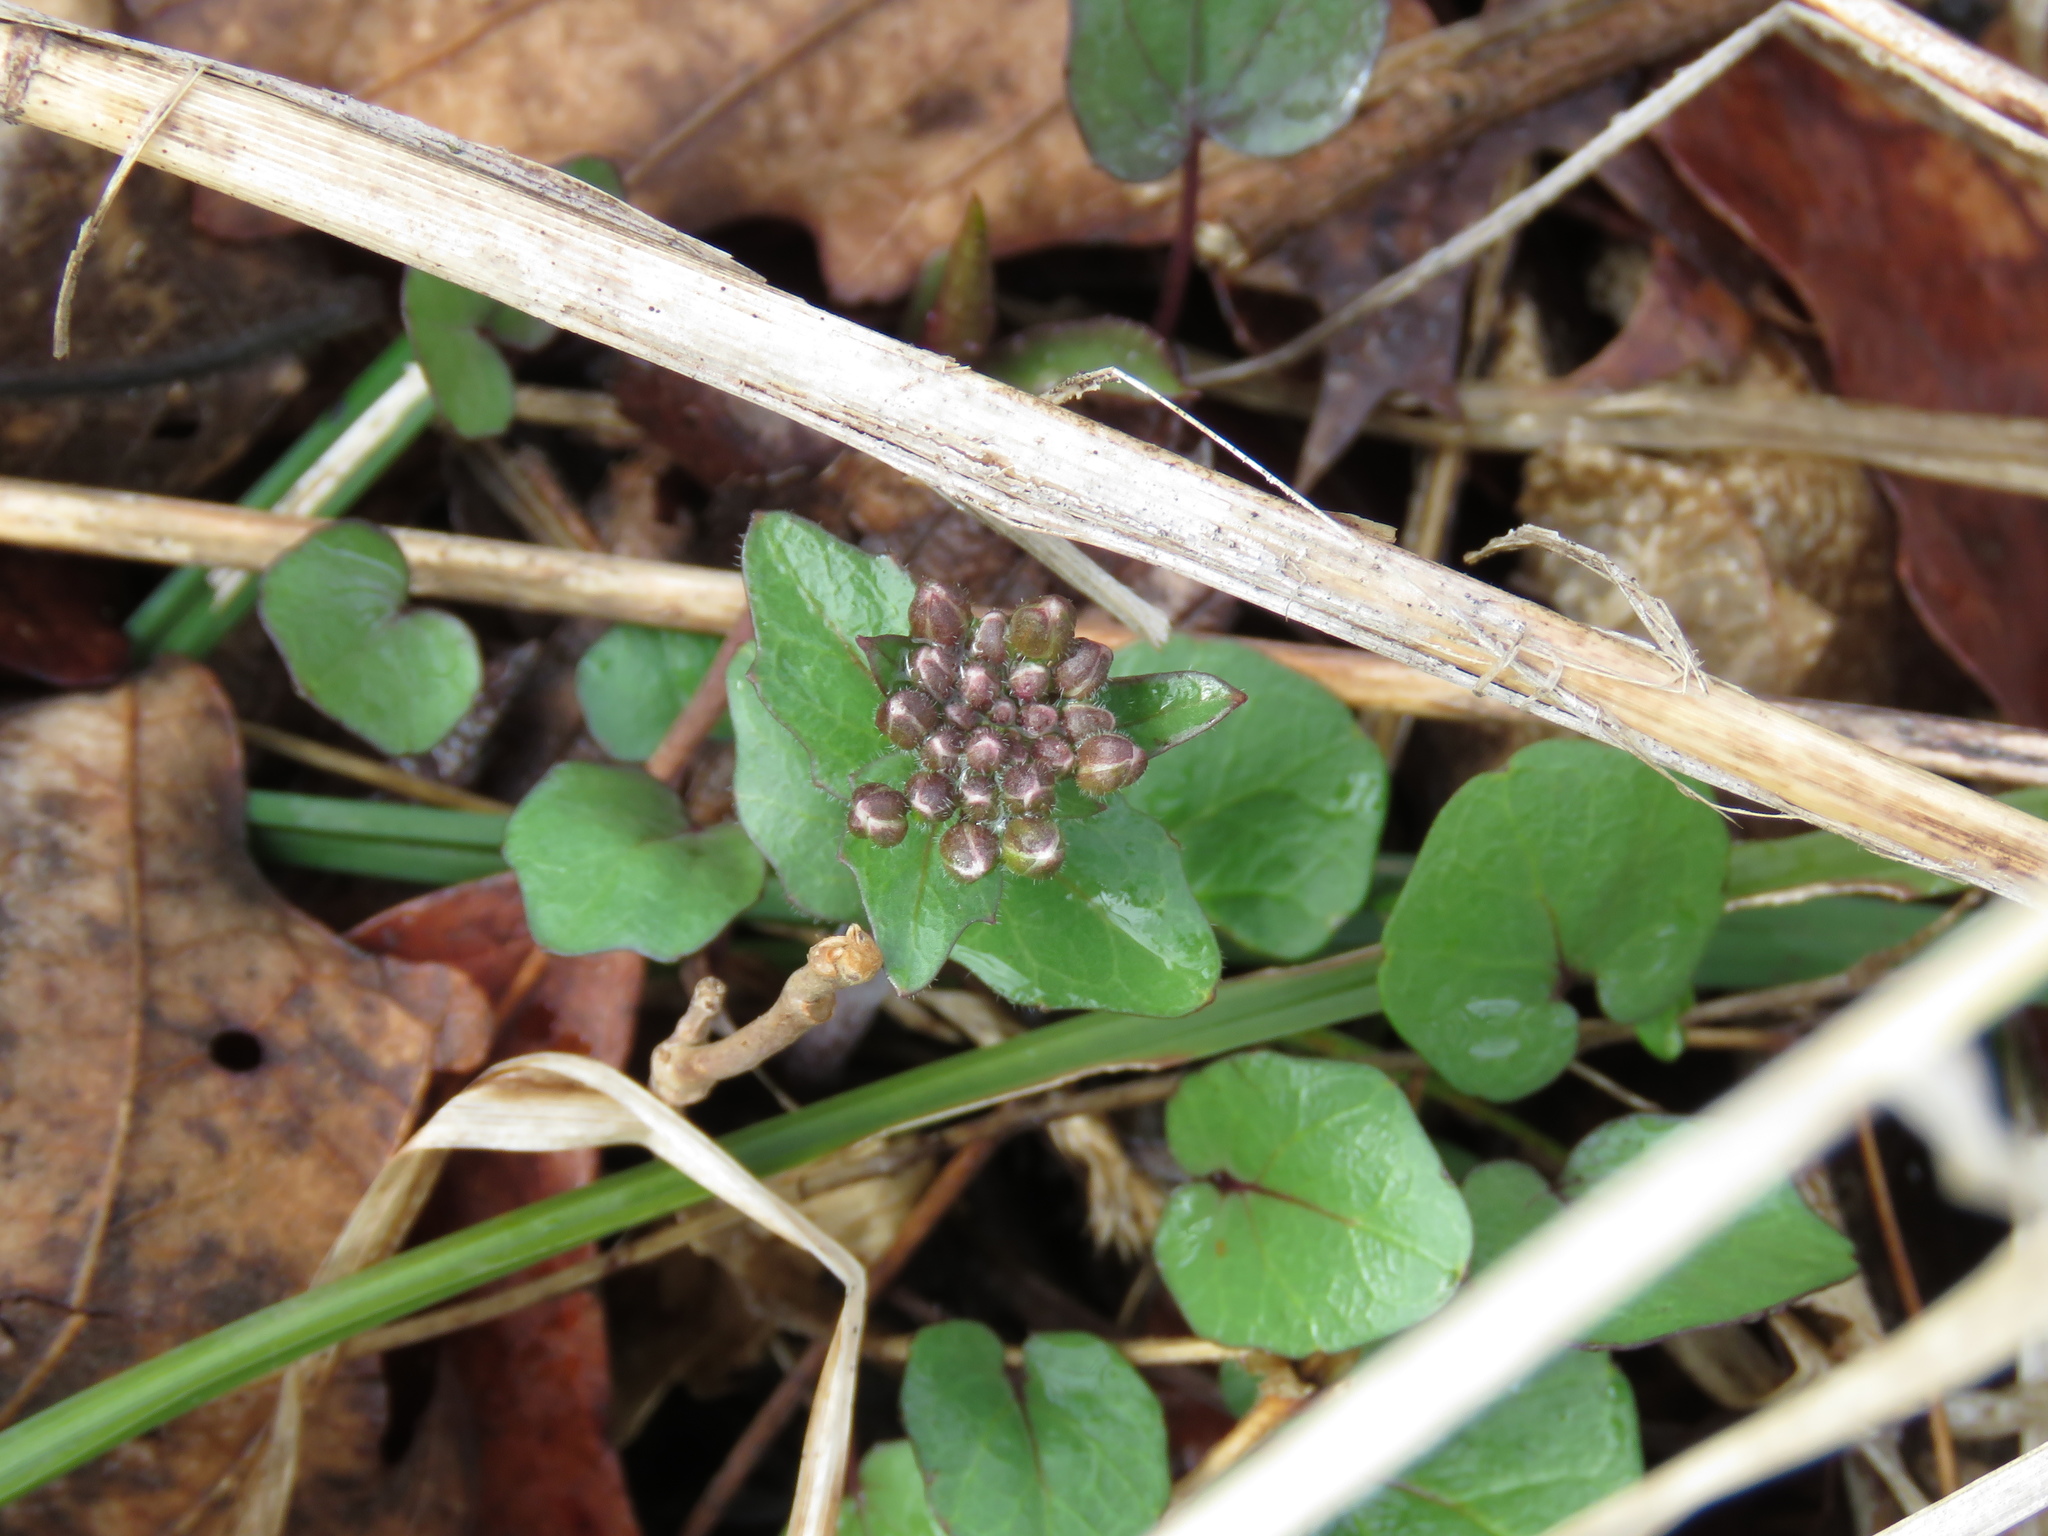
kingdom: Plantae
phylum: Tracheophyta
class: Magnoliopsida
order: Brassicales
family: Brassicaceae
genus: Cardamine
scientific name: Cardamine douglassii
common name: Purple cress
